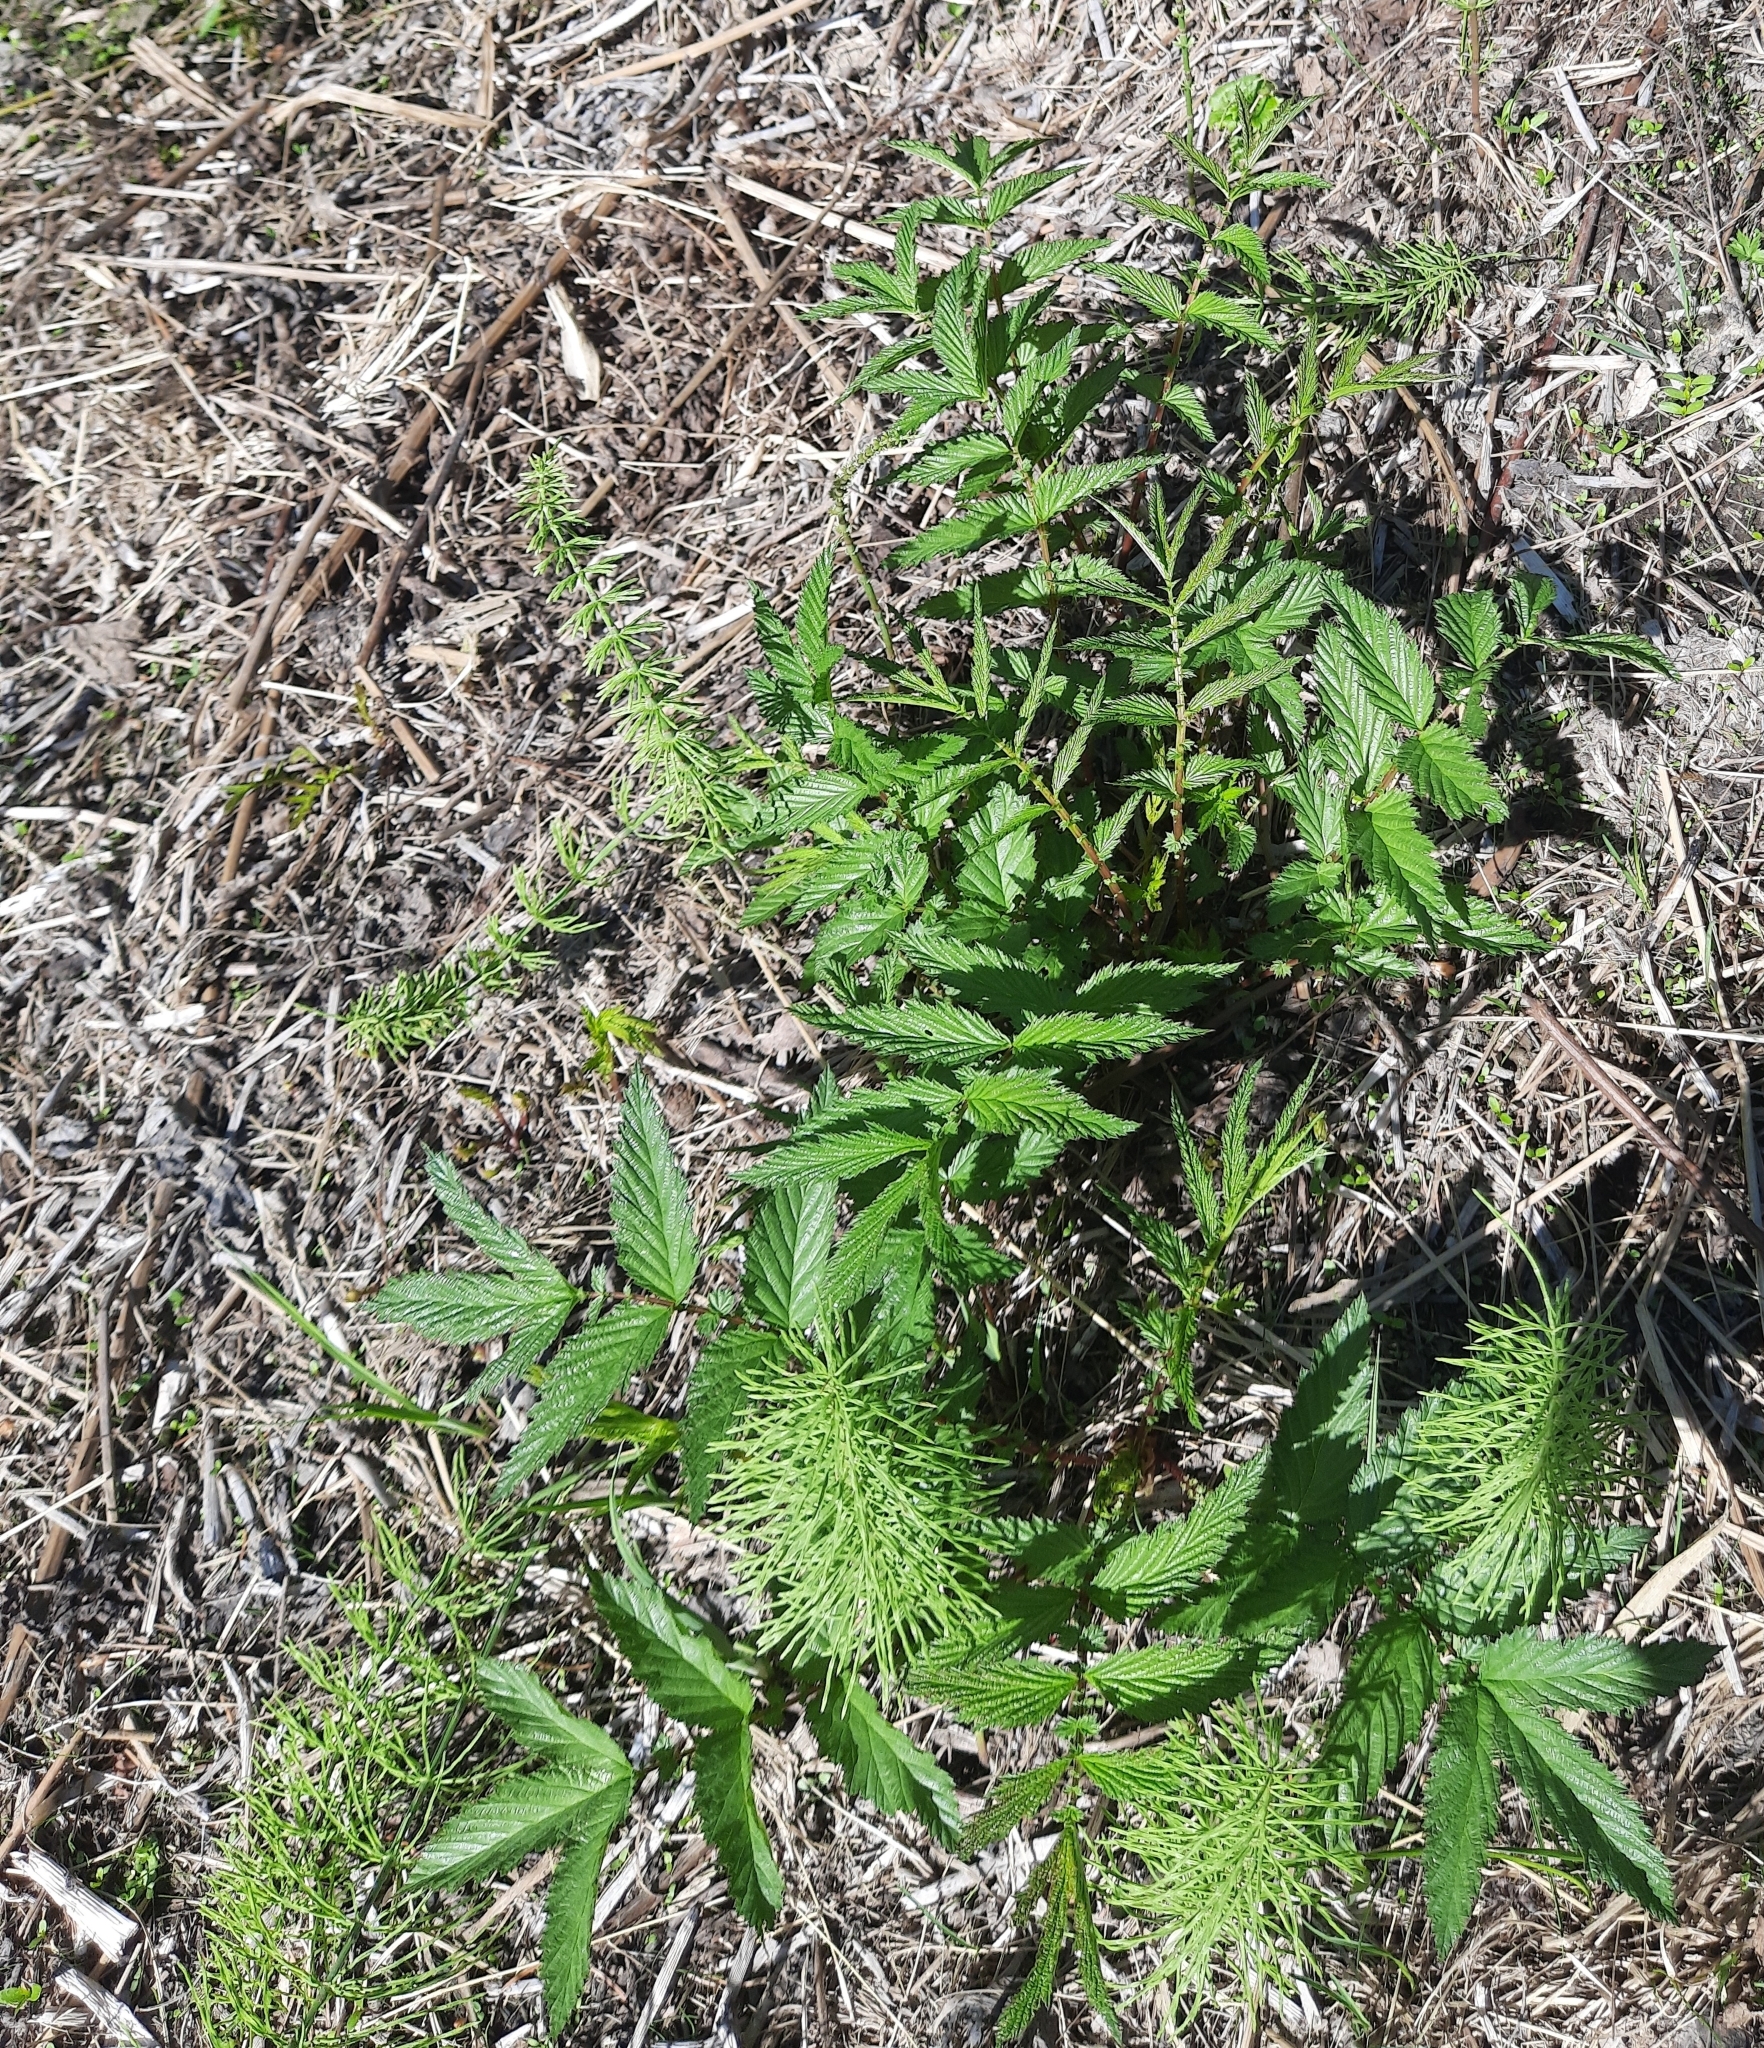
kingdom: Plantae
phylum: Tracheophyta
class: Magnoliopsida
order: Rosales
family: Rosaceae
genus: Filipendula
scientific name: Filipendula ulmaria
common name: Meadowsweet
